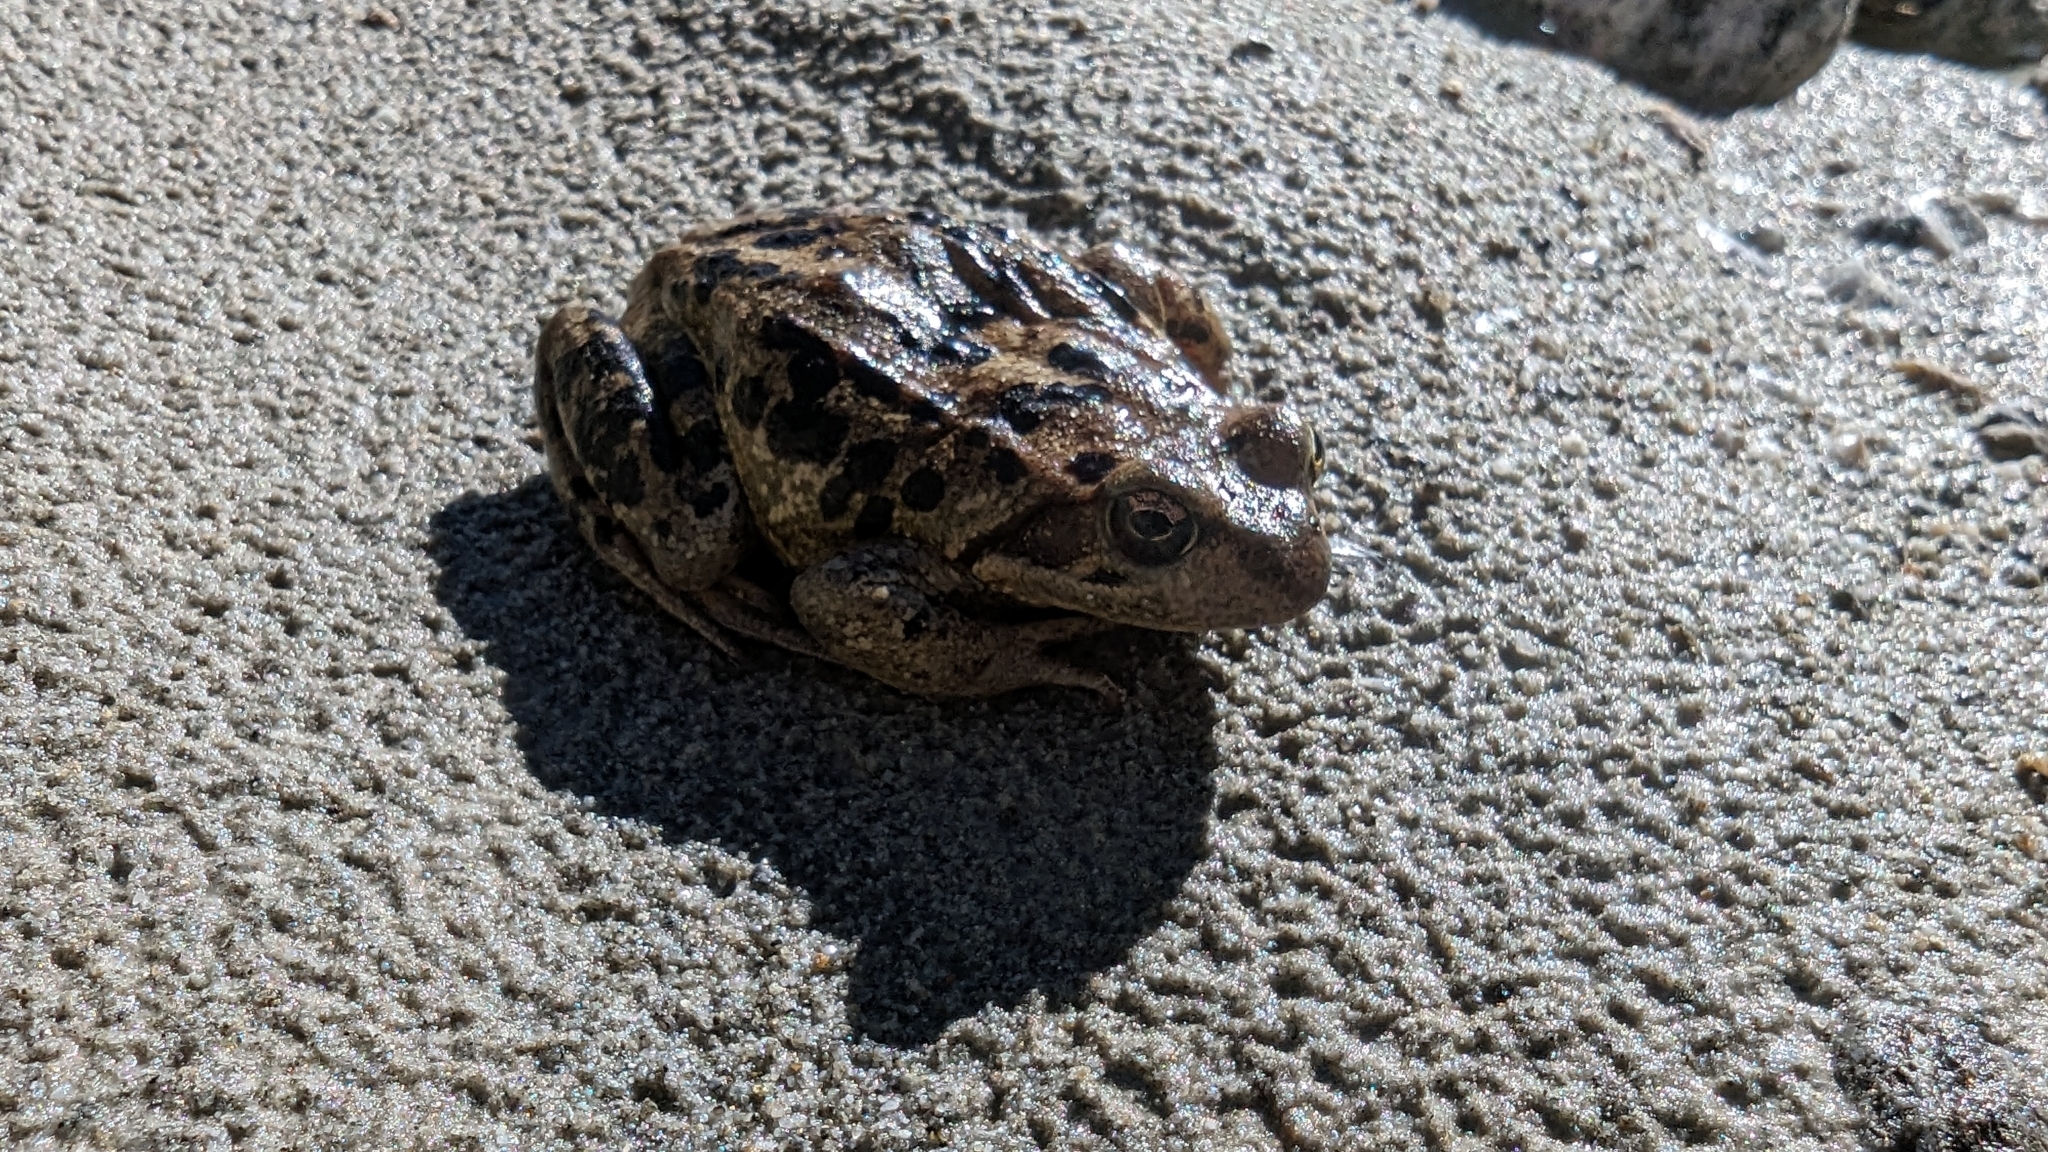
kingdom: Animalia
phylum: Chordata
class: Amphibia
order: Anura
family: Ranidae
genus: Rana
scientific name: Rana temporaria
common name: Common frog
